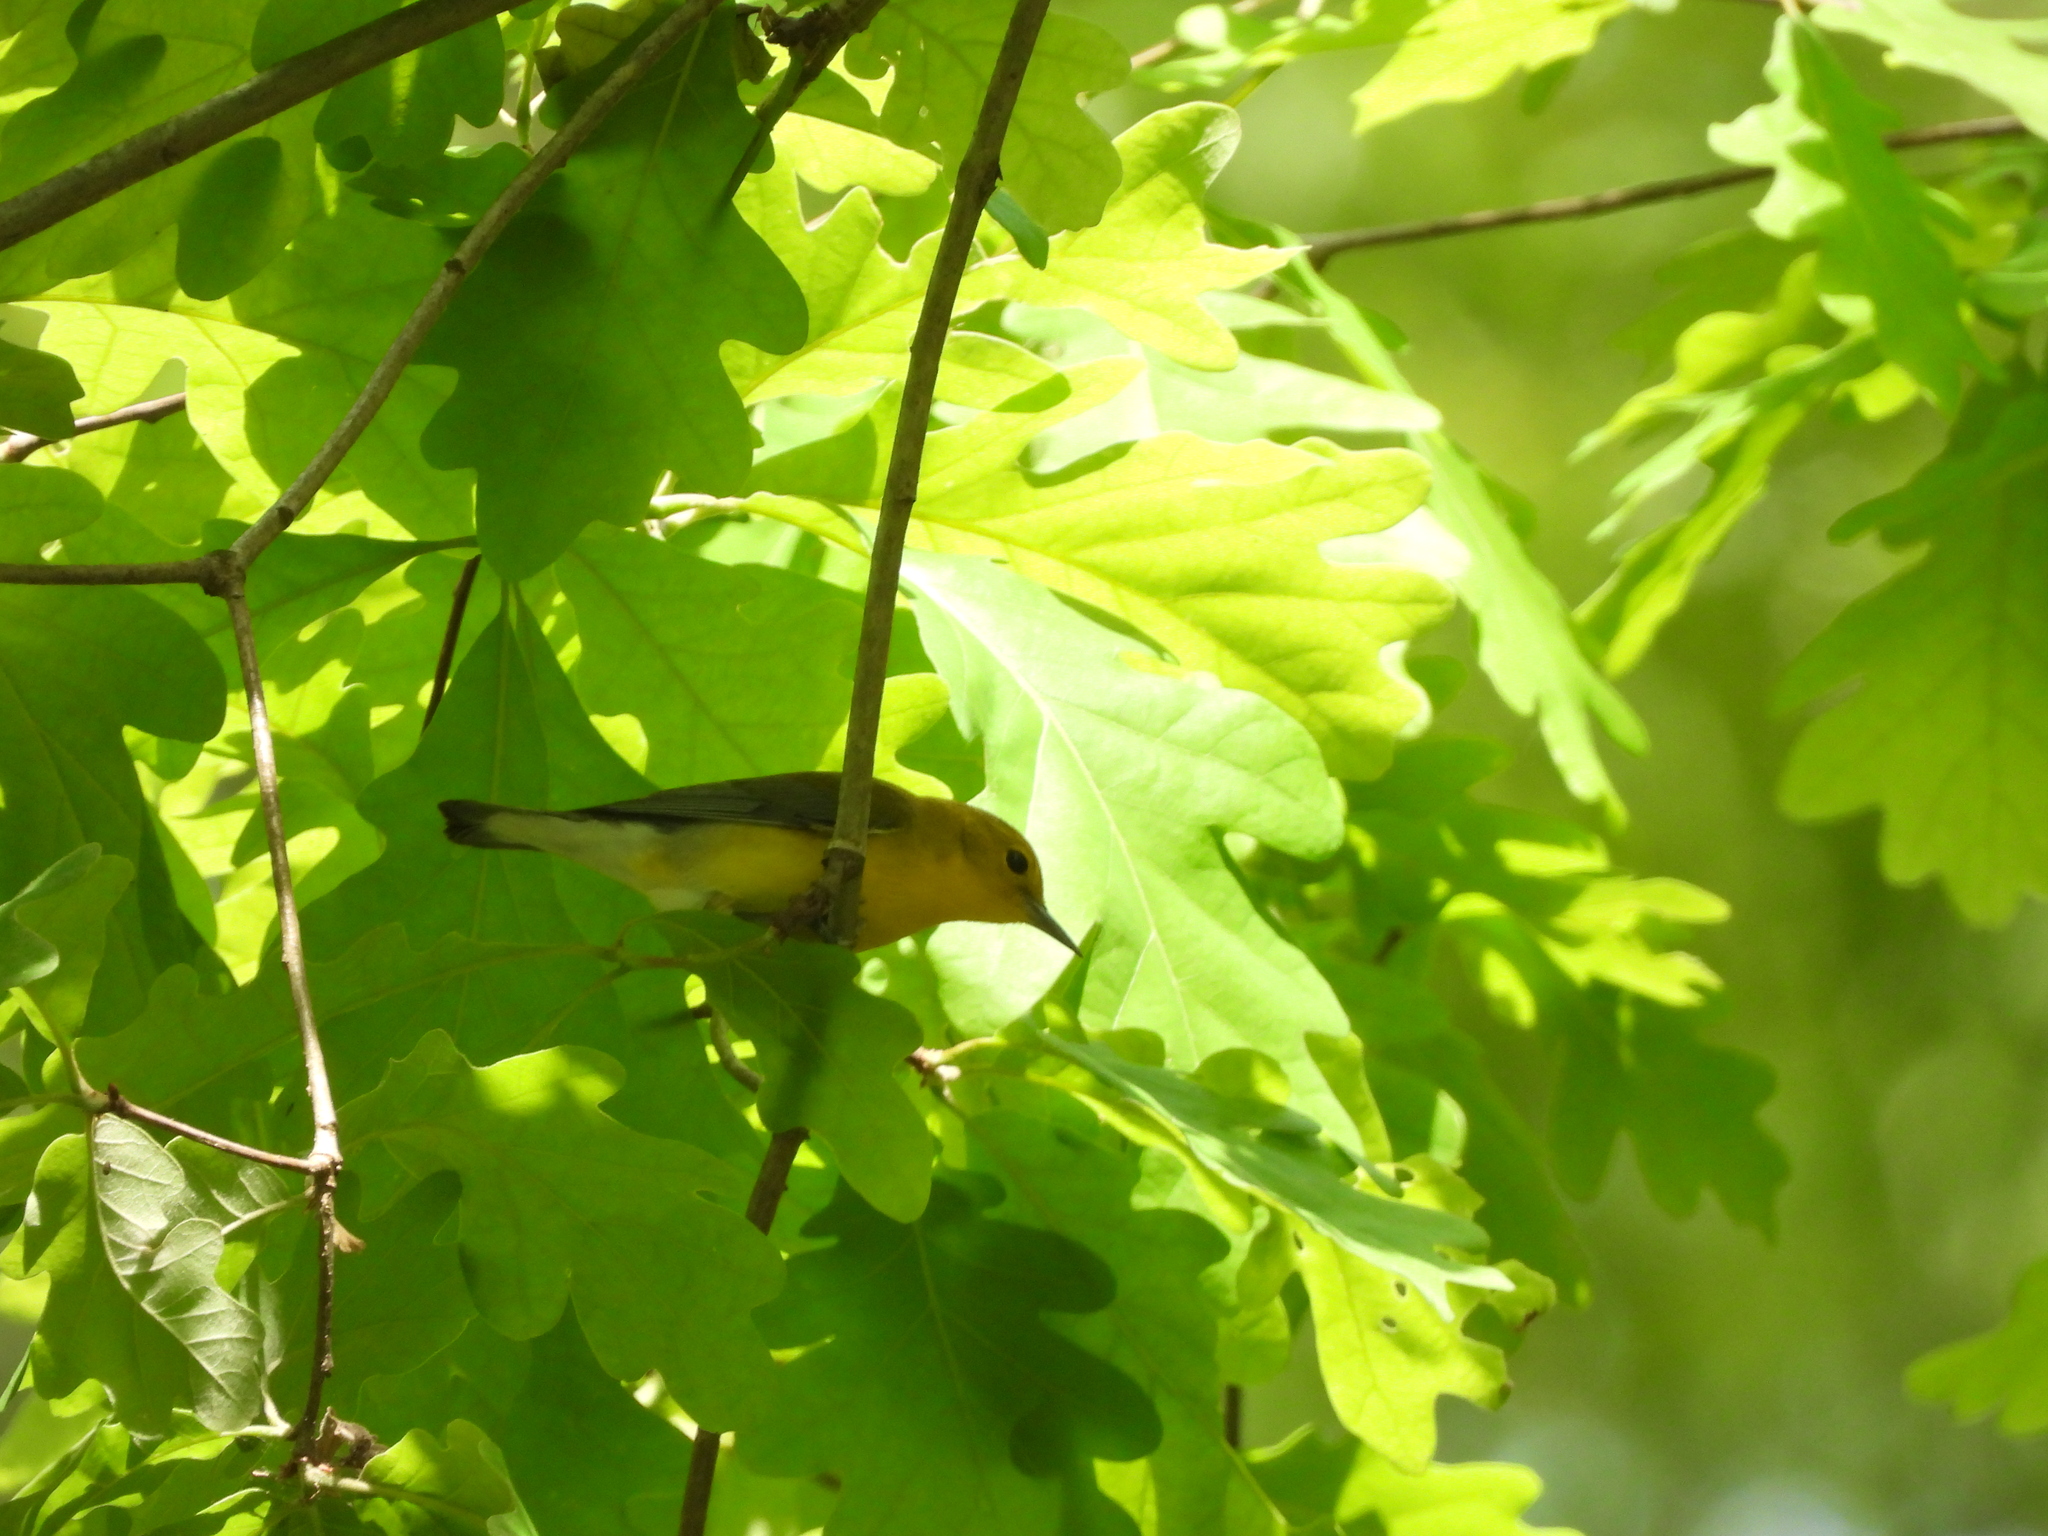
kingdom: Animalia
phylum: Chordata
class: Aves
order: Passeriformes
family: Parulidae
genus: Protonotaria
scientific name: Protonotaria citrea
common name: Prothonotary warbler
